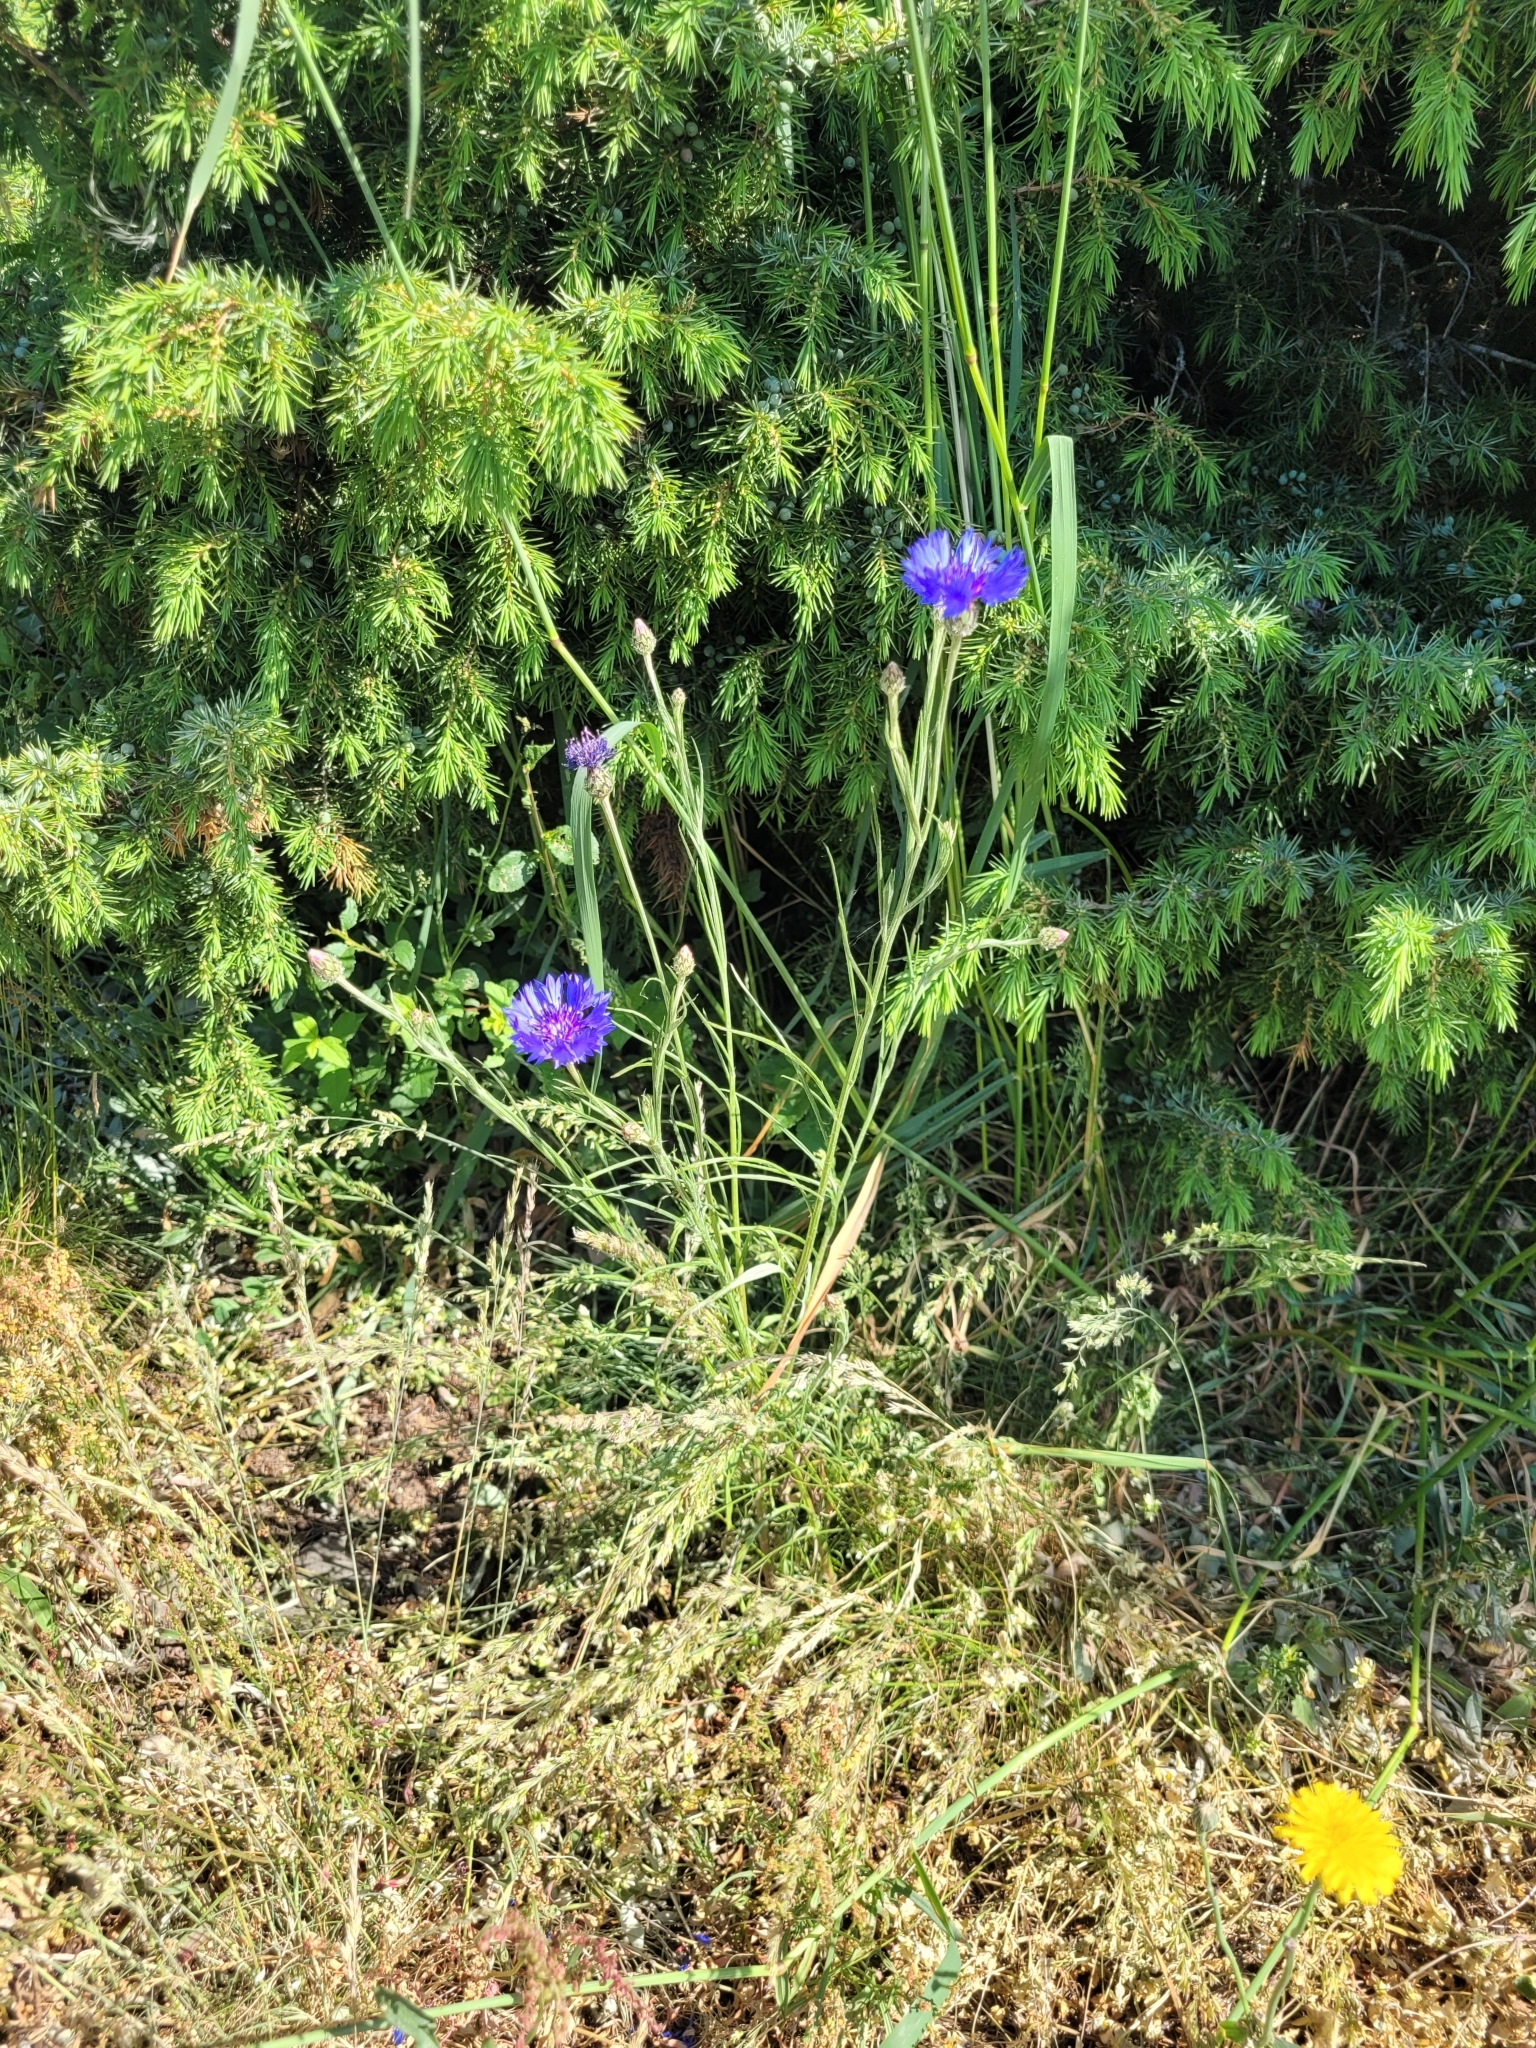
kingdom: Plantae
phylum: Tracheophyta
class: Magnoliopsida
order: Asterales
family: Asteraceae
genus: Centaurea
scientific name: Centaurea cyanus
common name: Cornflower
